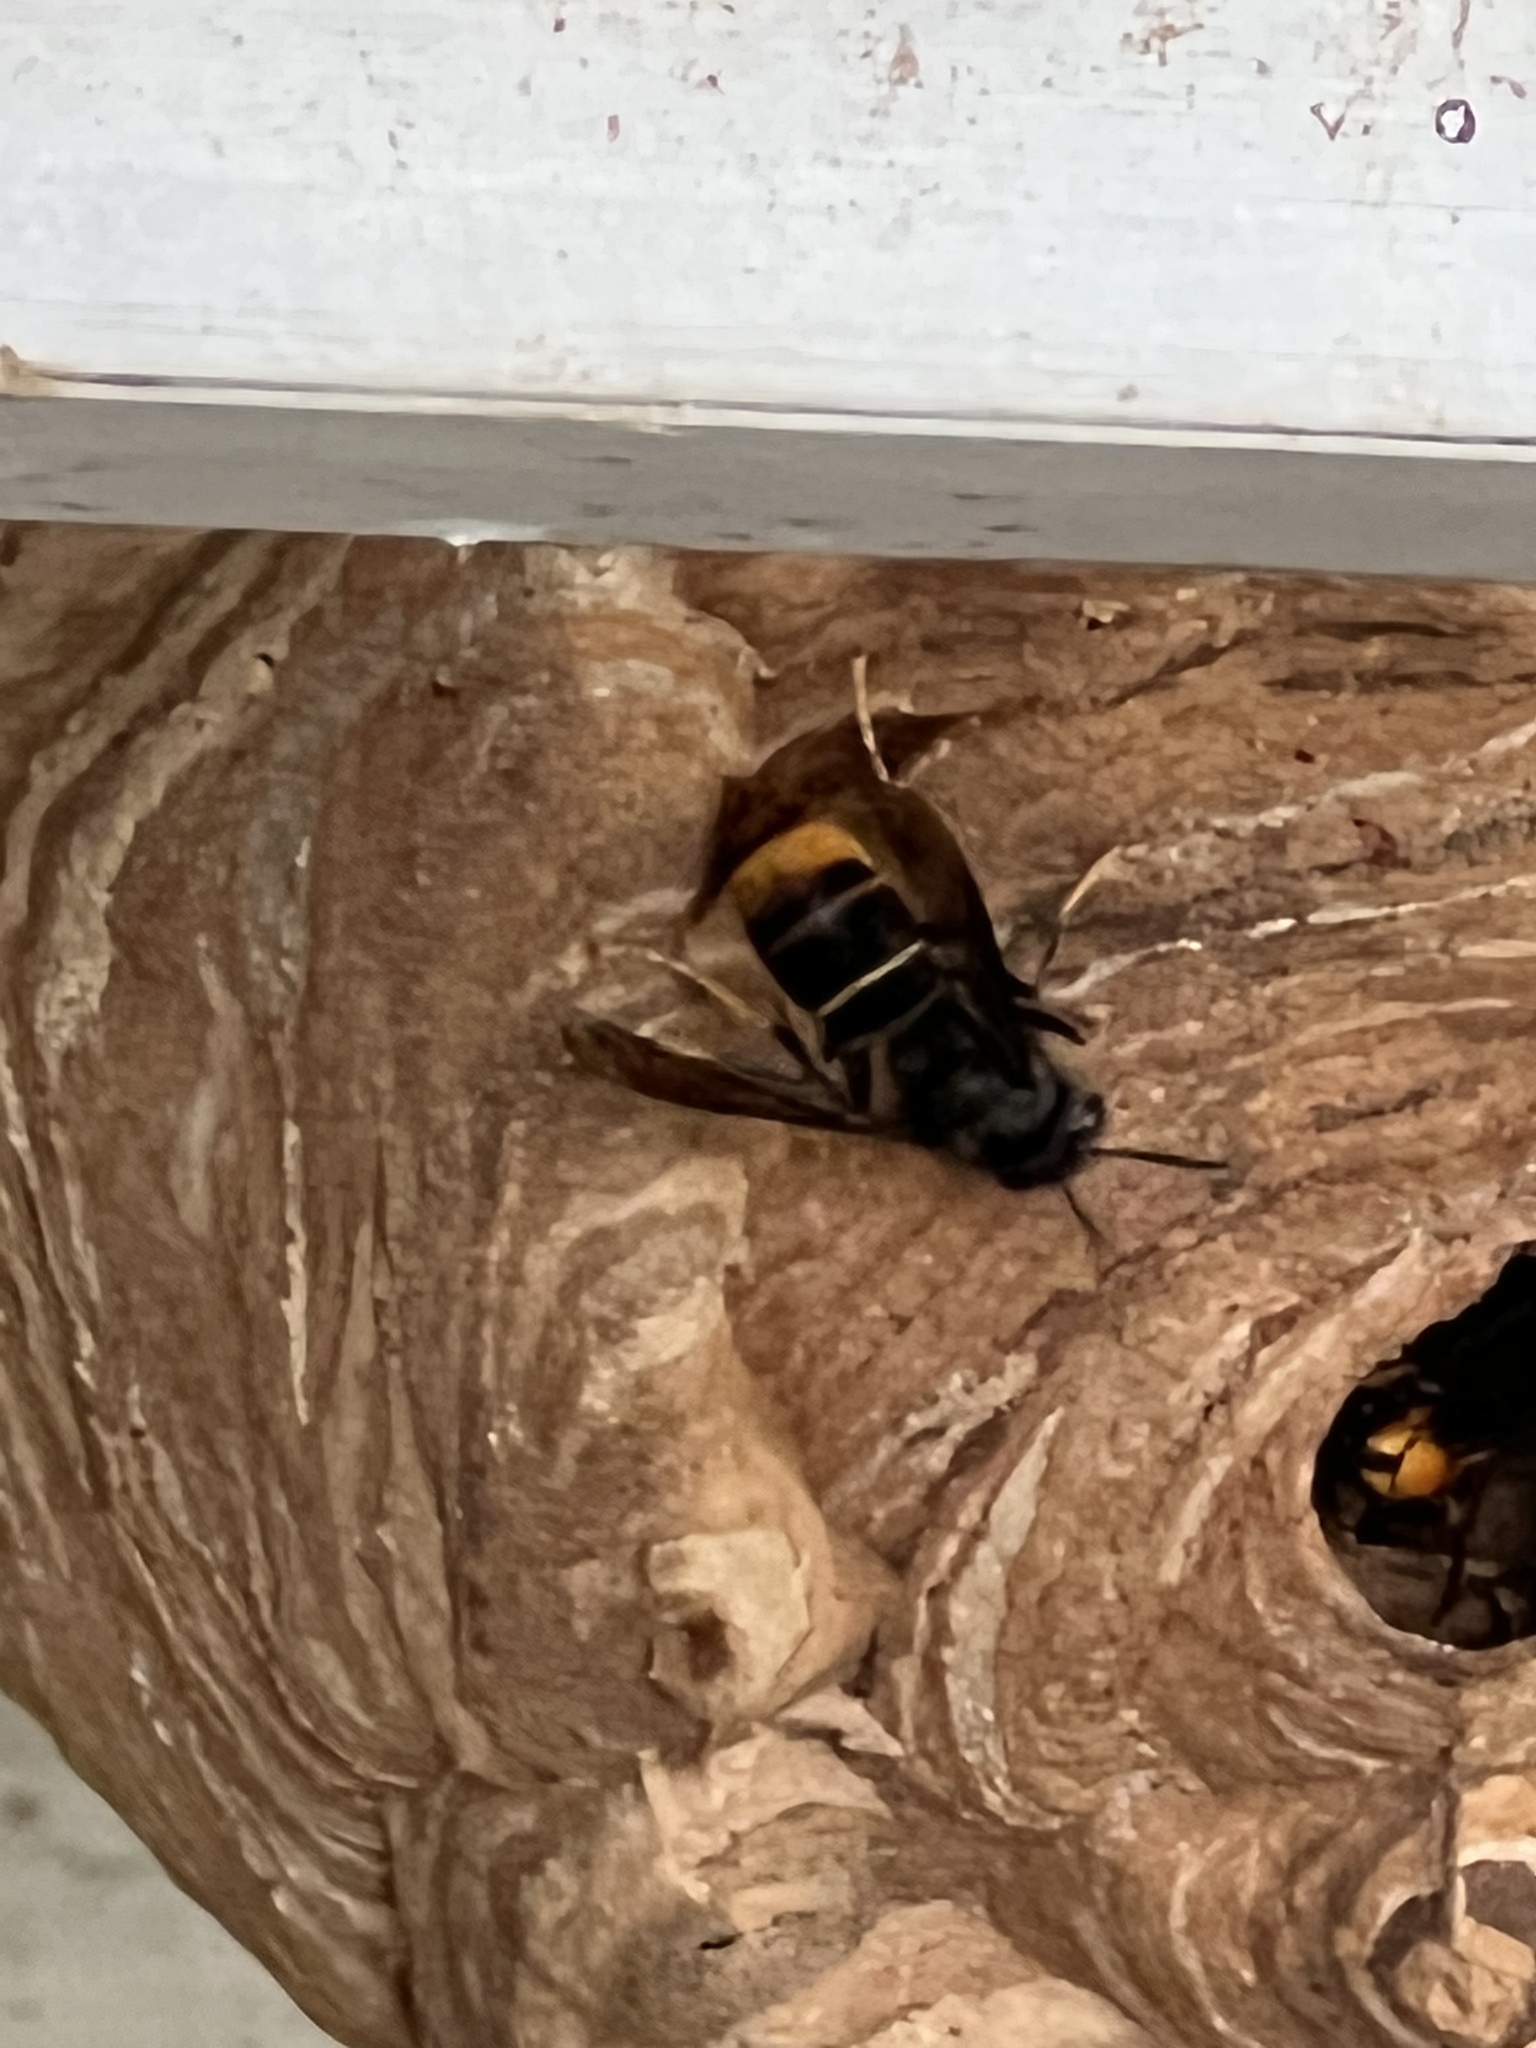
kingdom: Animalia
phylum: Arthropoda
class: Insecta
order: Hymenoptera
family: Vespidae
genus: Vespa
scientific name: Vespa velutina
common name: Asian hornet
